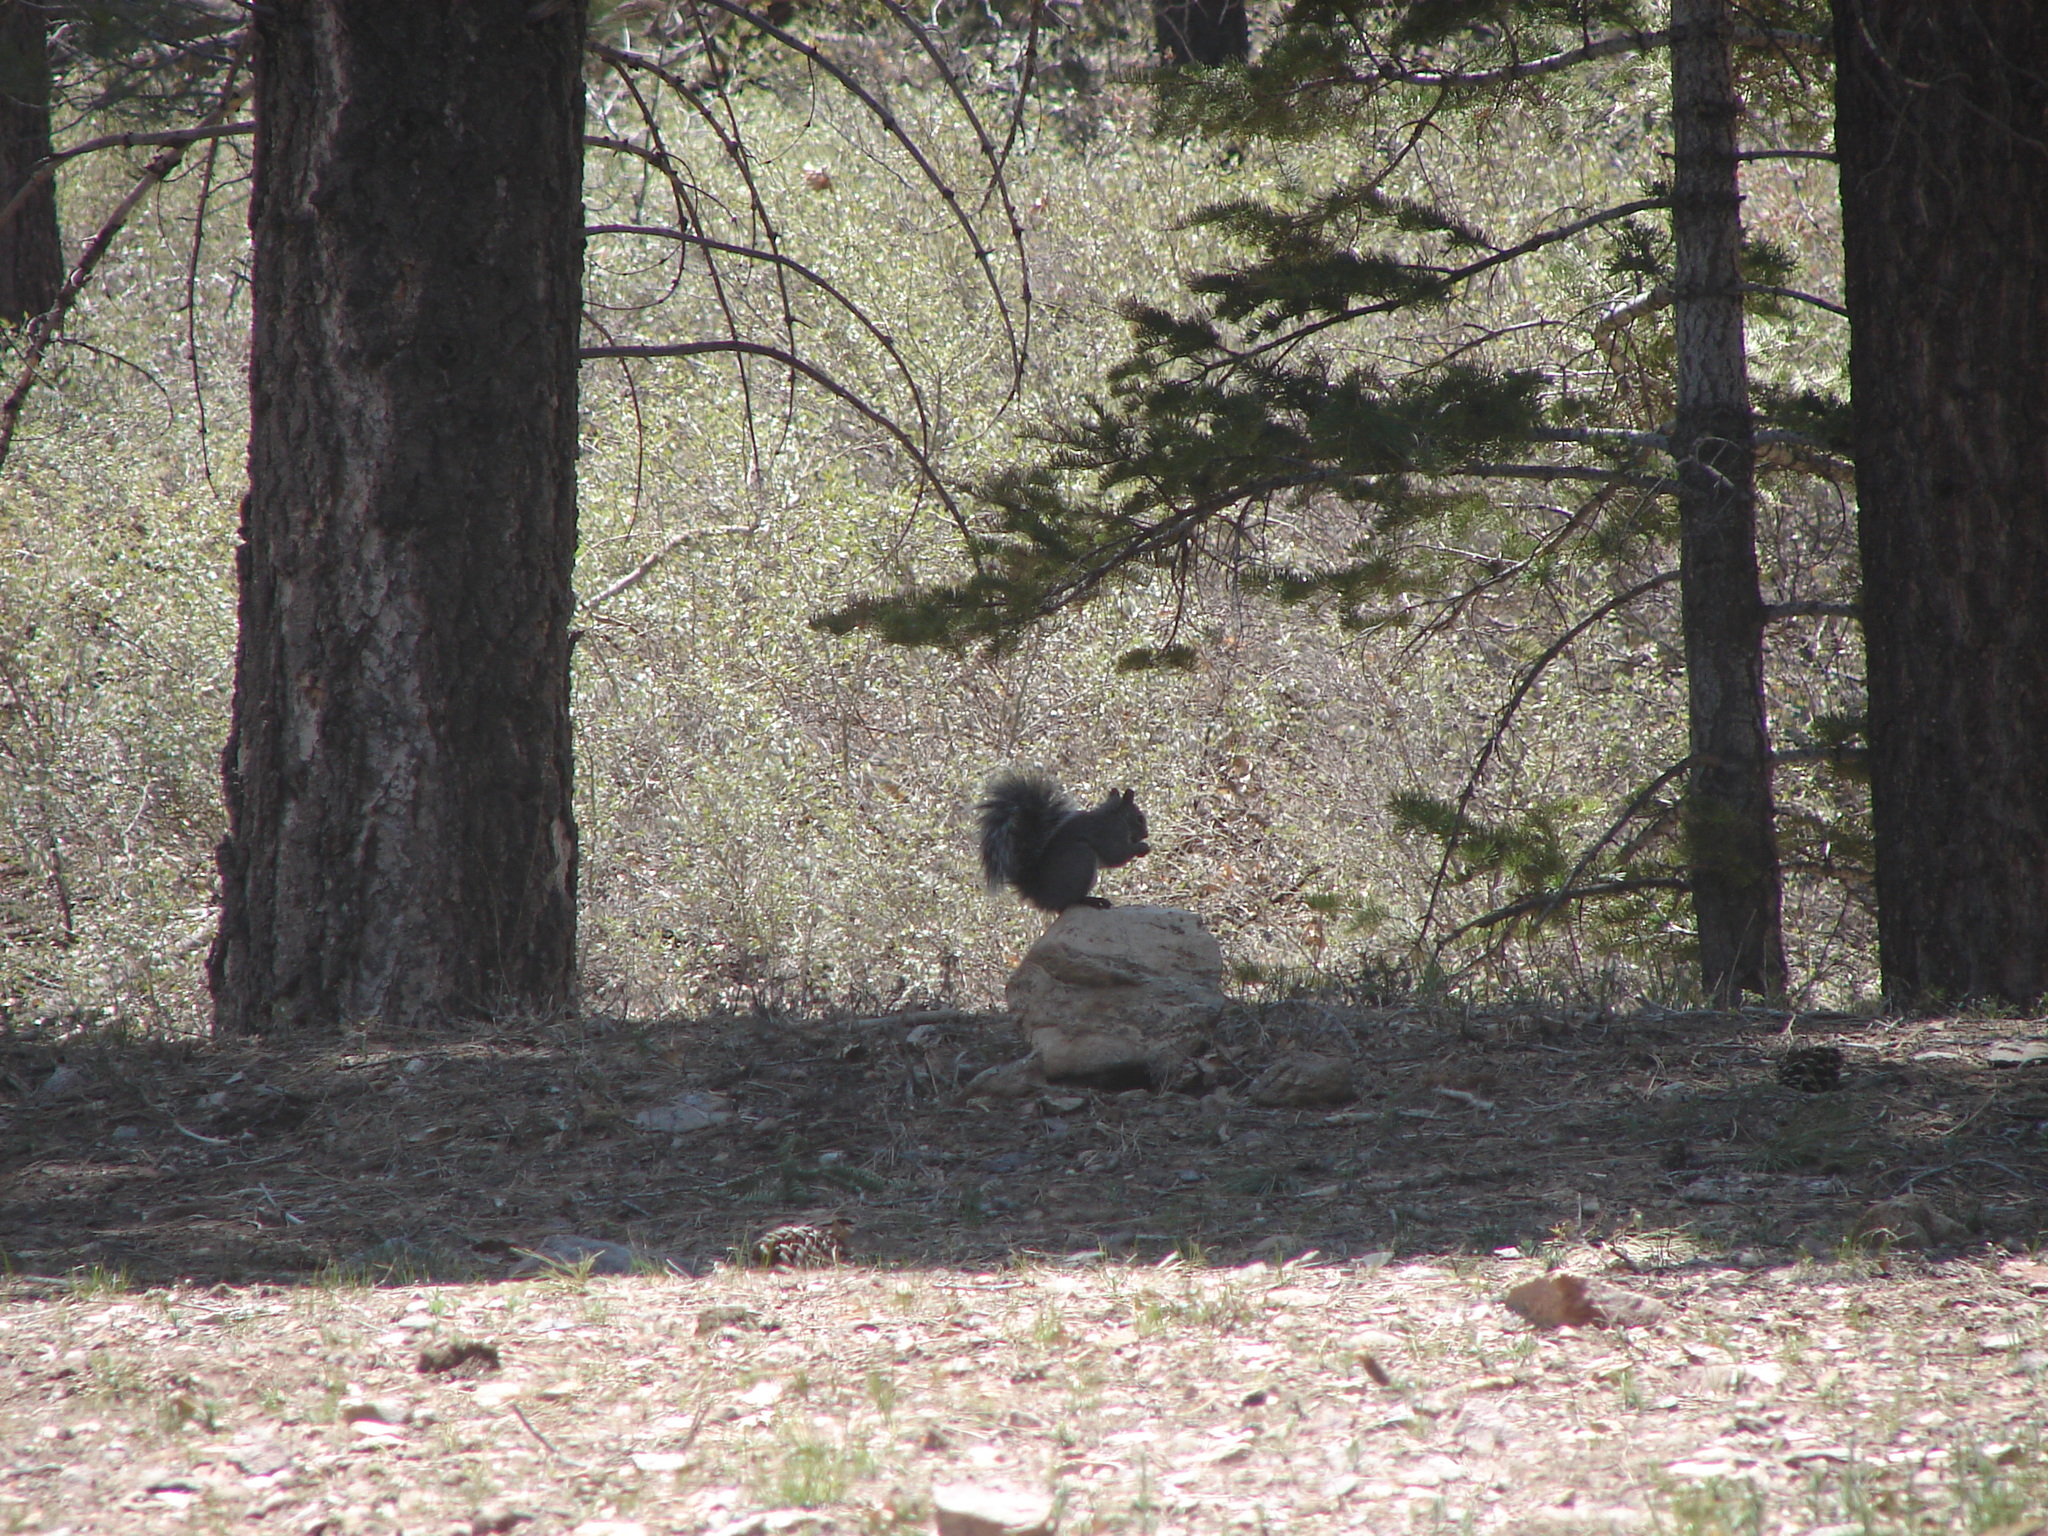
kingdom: Animalia
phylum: Chordata
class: Mammalia
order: Rodentia
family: Sciuridae
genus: Sciurus
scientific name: Sciurus griseus
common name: Western gray squirrel
